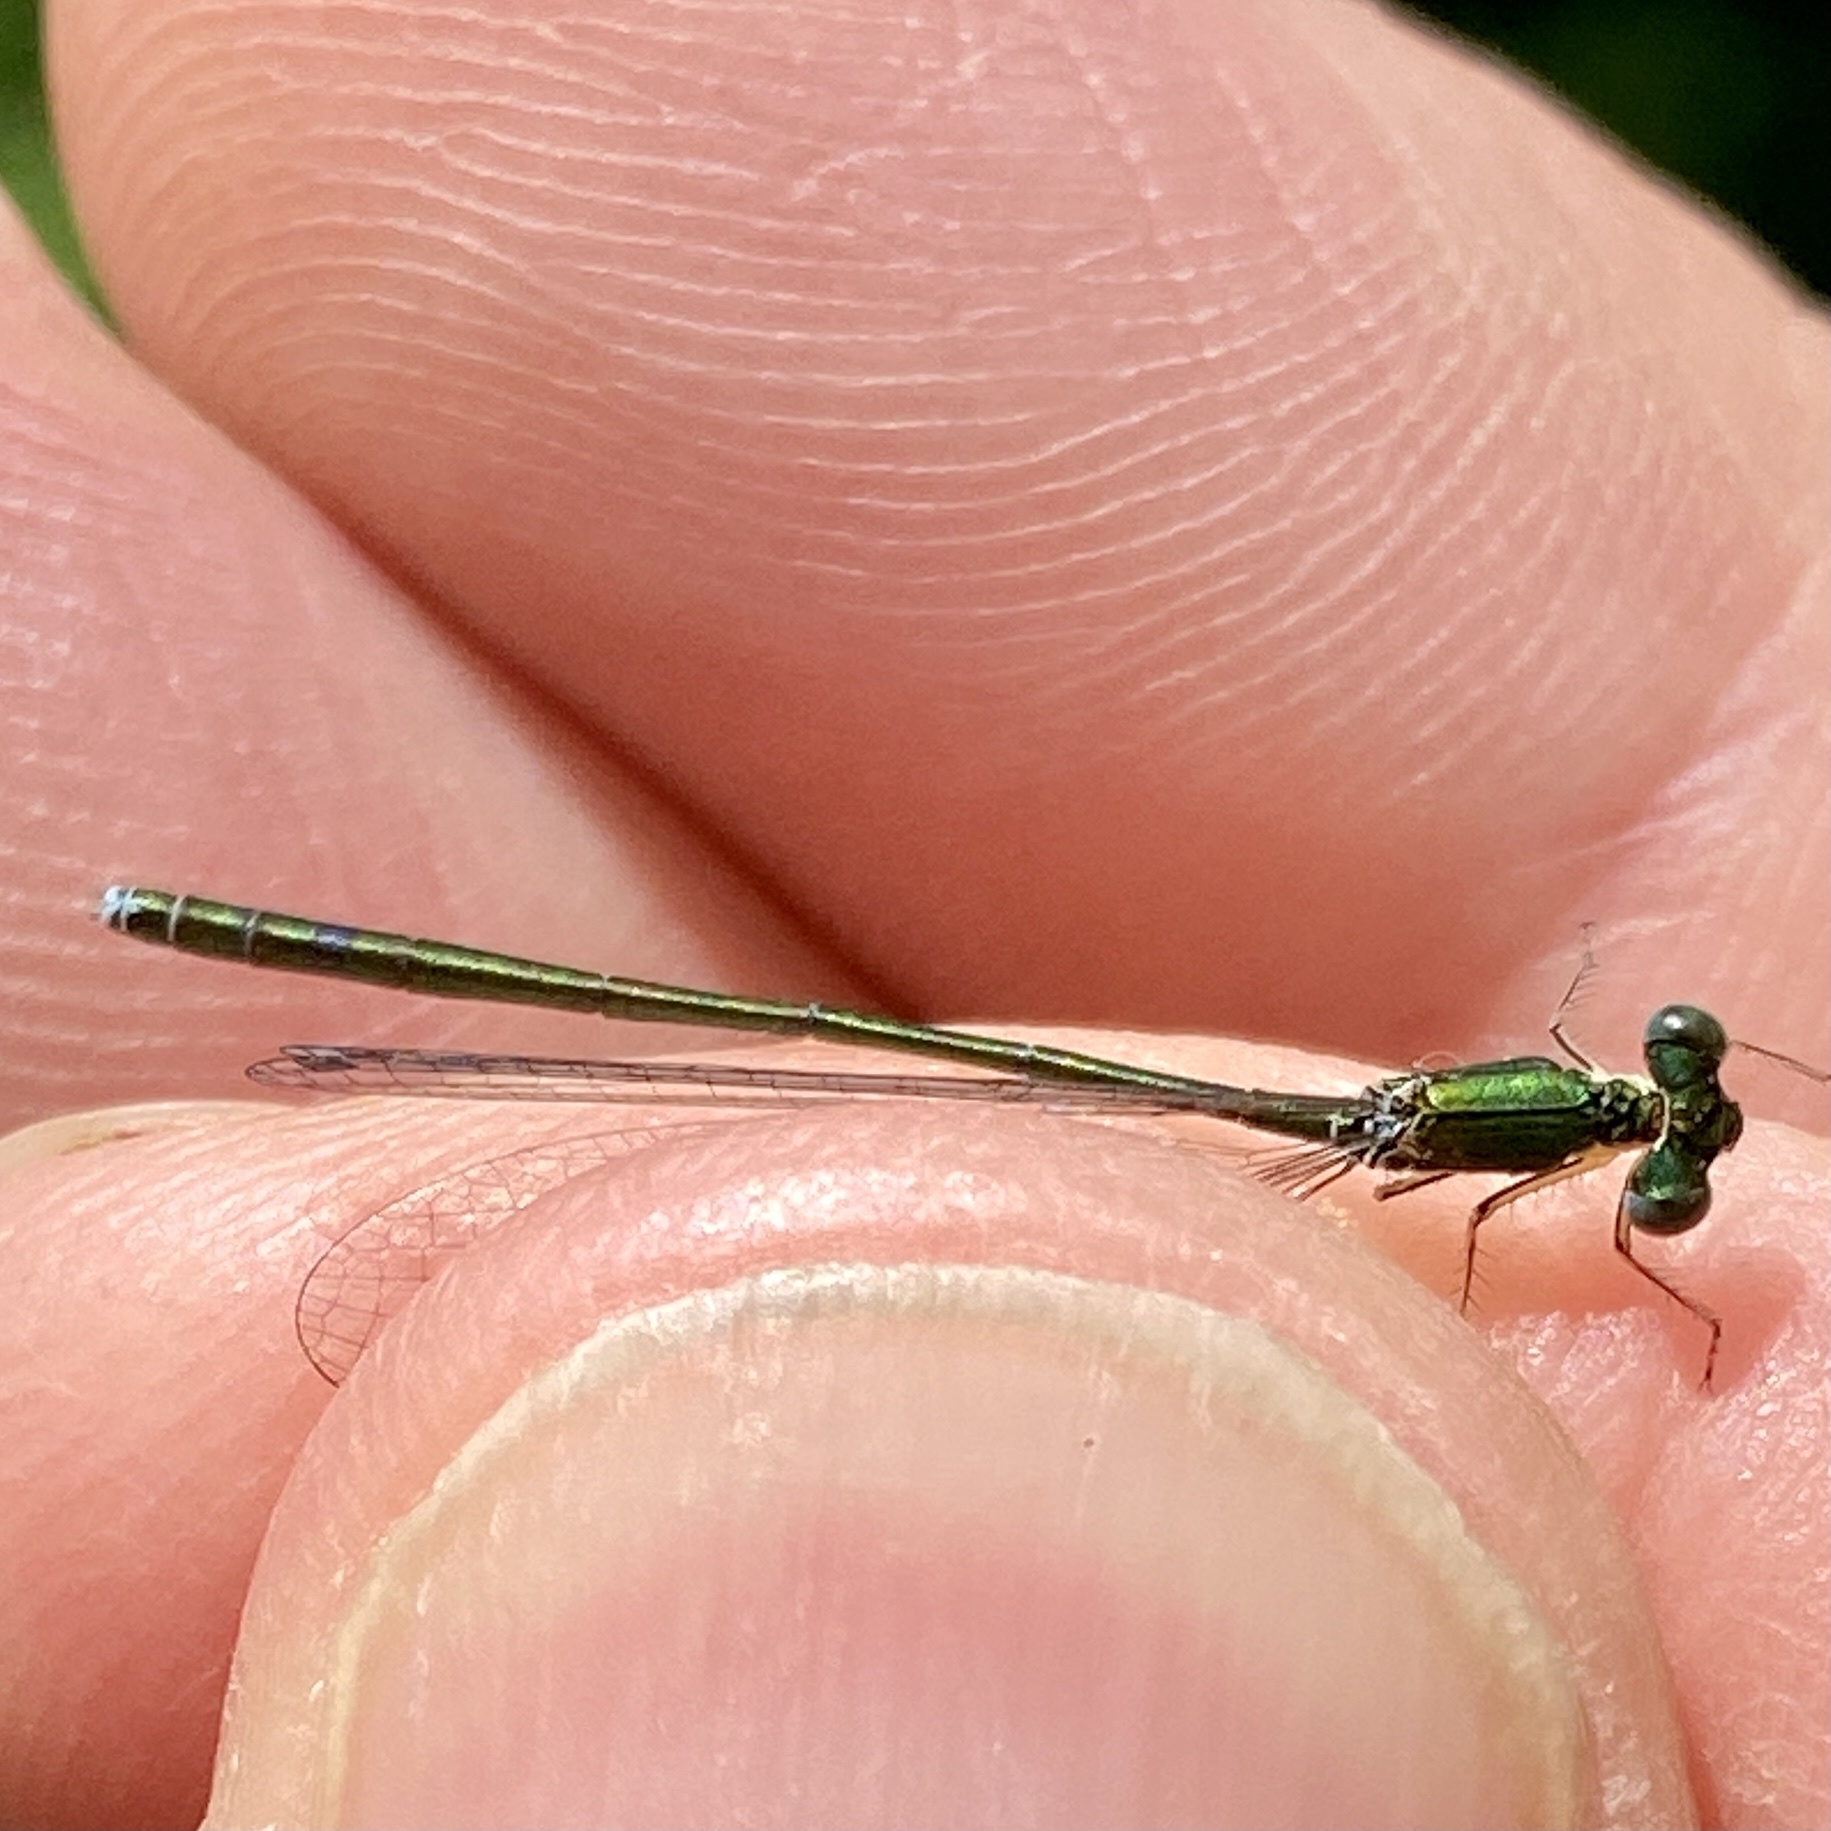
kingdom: Animalia
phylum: Arthropoda
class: Insecta
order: Odonata
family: Coenagrionidae
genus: Nehalennia
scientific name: Nehalennia irene
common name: Sedge sprite
